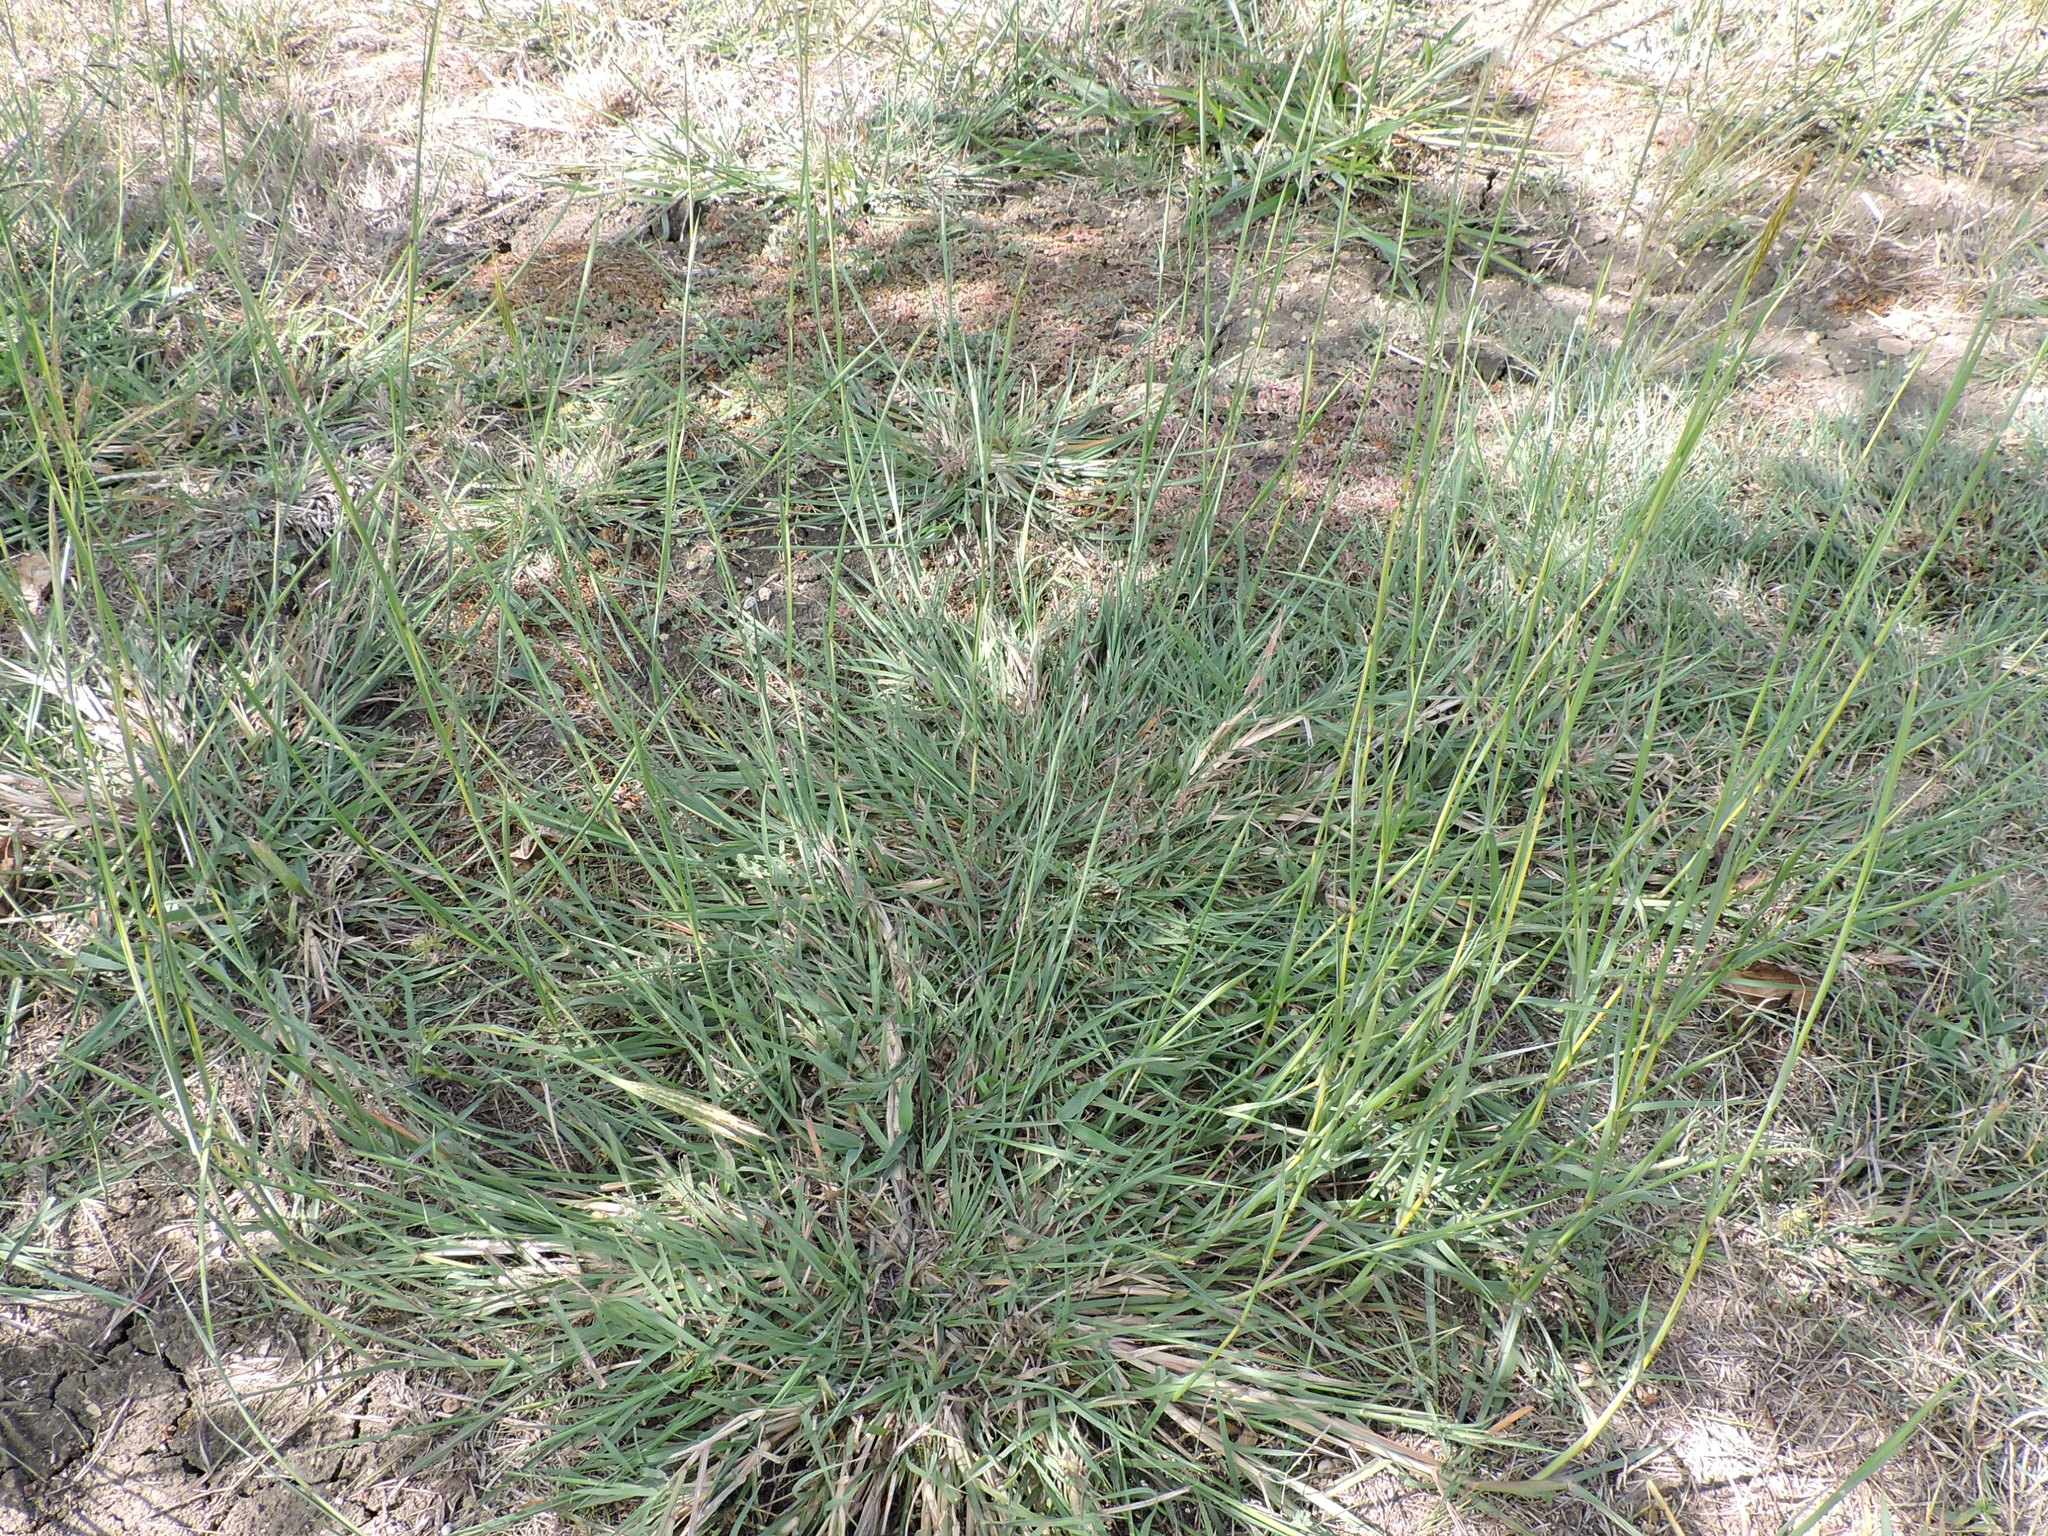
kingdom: Plantae
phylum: Tracheophyta
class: Liliopsida
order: Poales
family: Poaceae
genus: Bothriochloa
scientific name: Bothriochloa ischaemum
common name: Yellow bluestem
